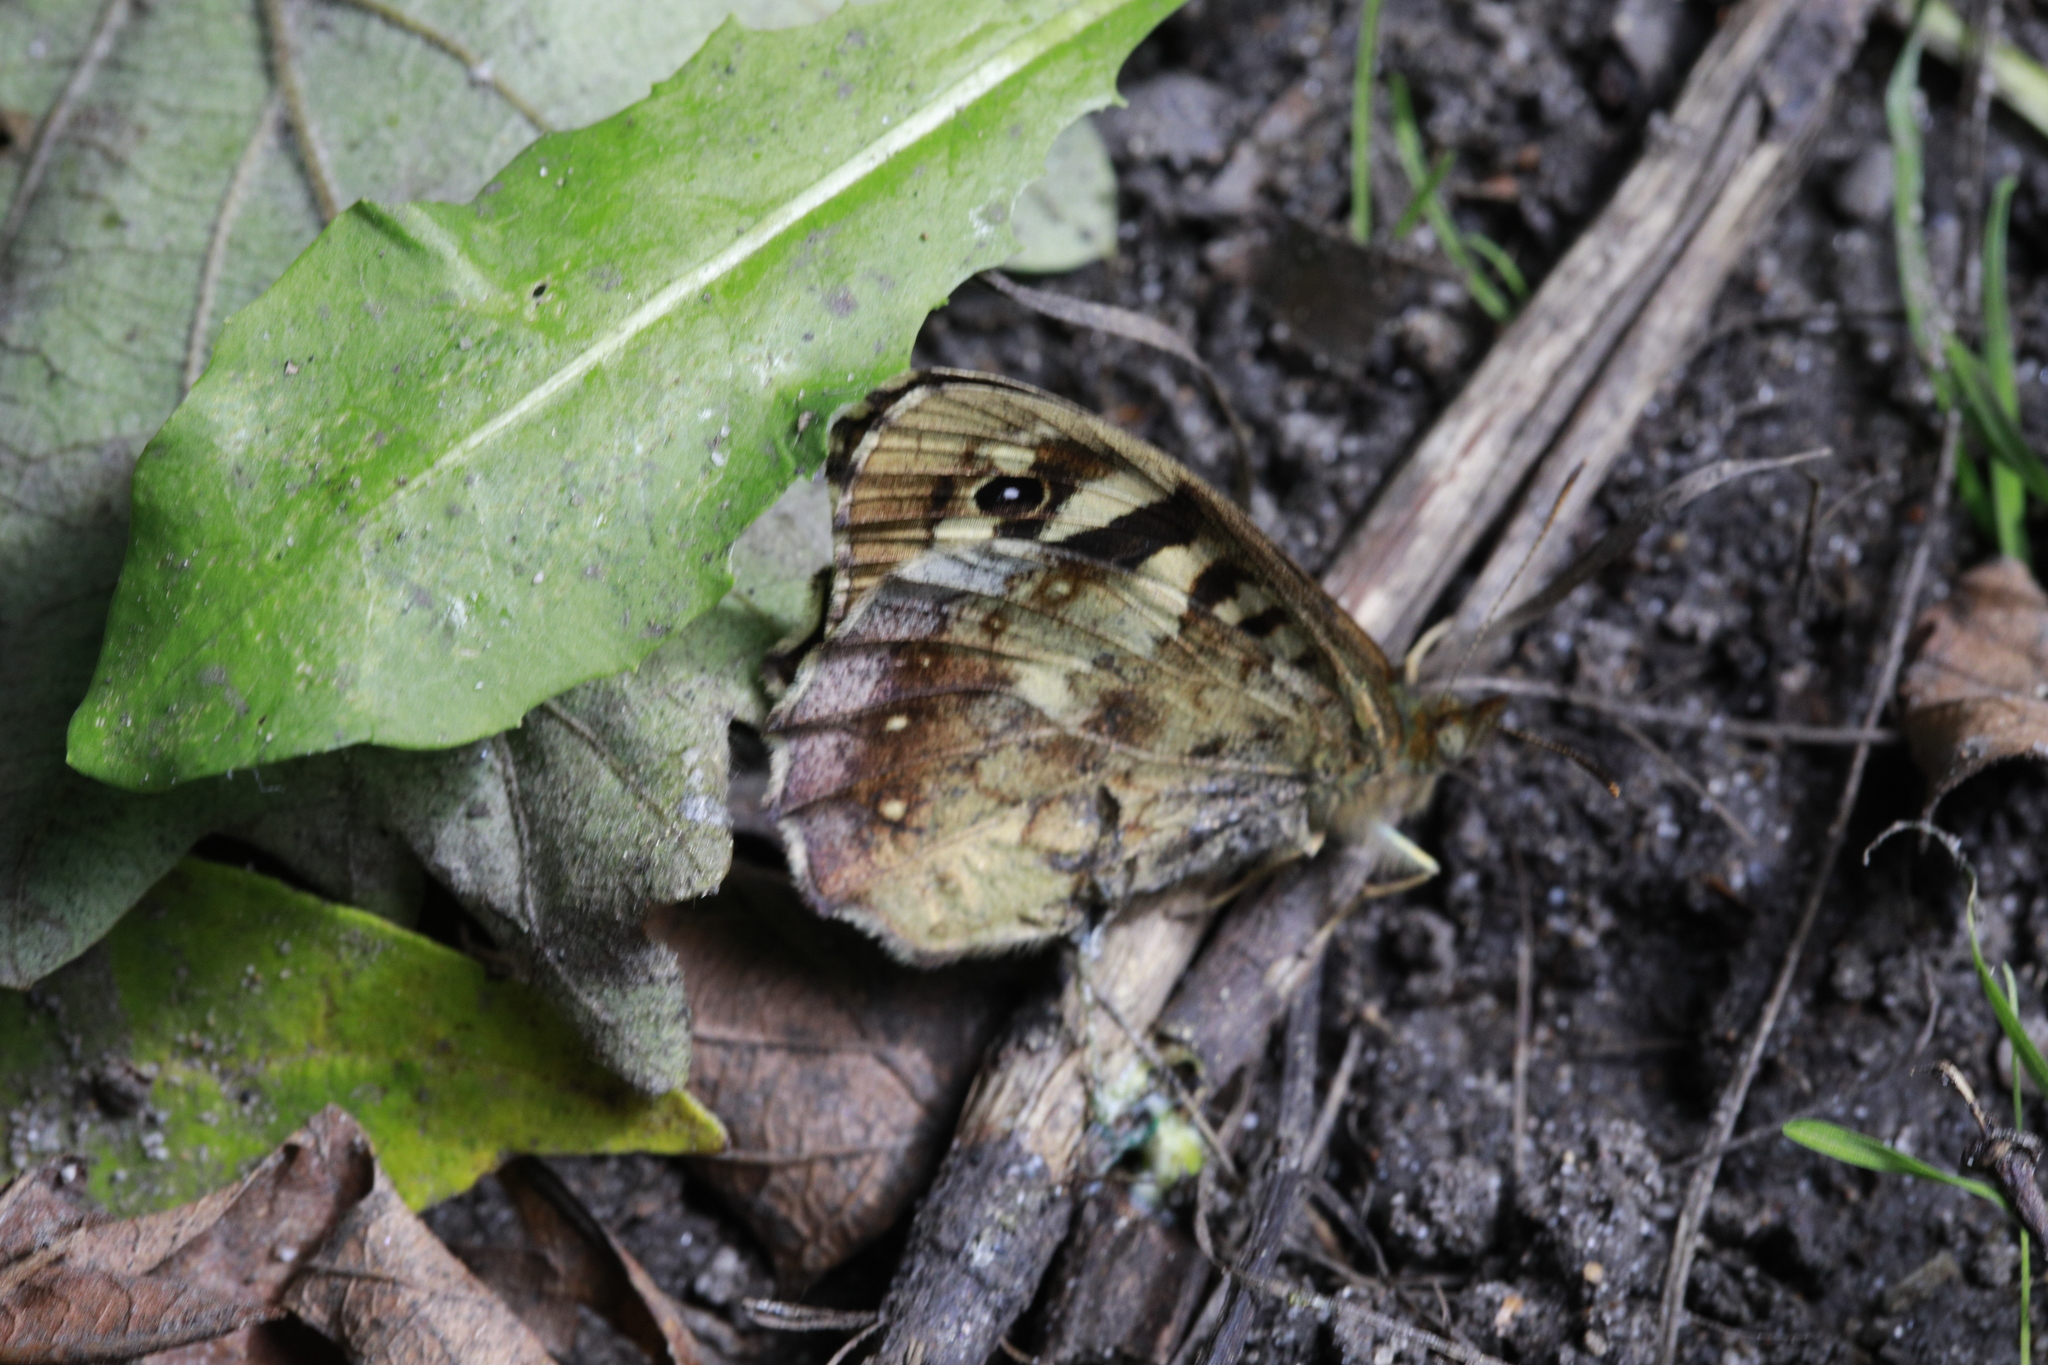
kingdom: Animalia
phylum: Arthropoda
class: Insecta
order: Lepidoptera
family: Nymphalidae
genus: Pararge
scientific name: Pararge aegeria
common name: Speckled wood
